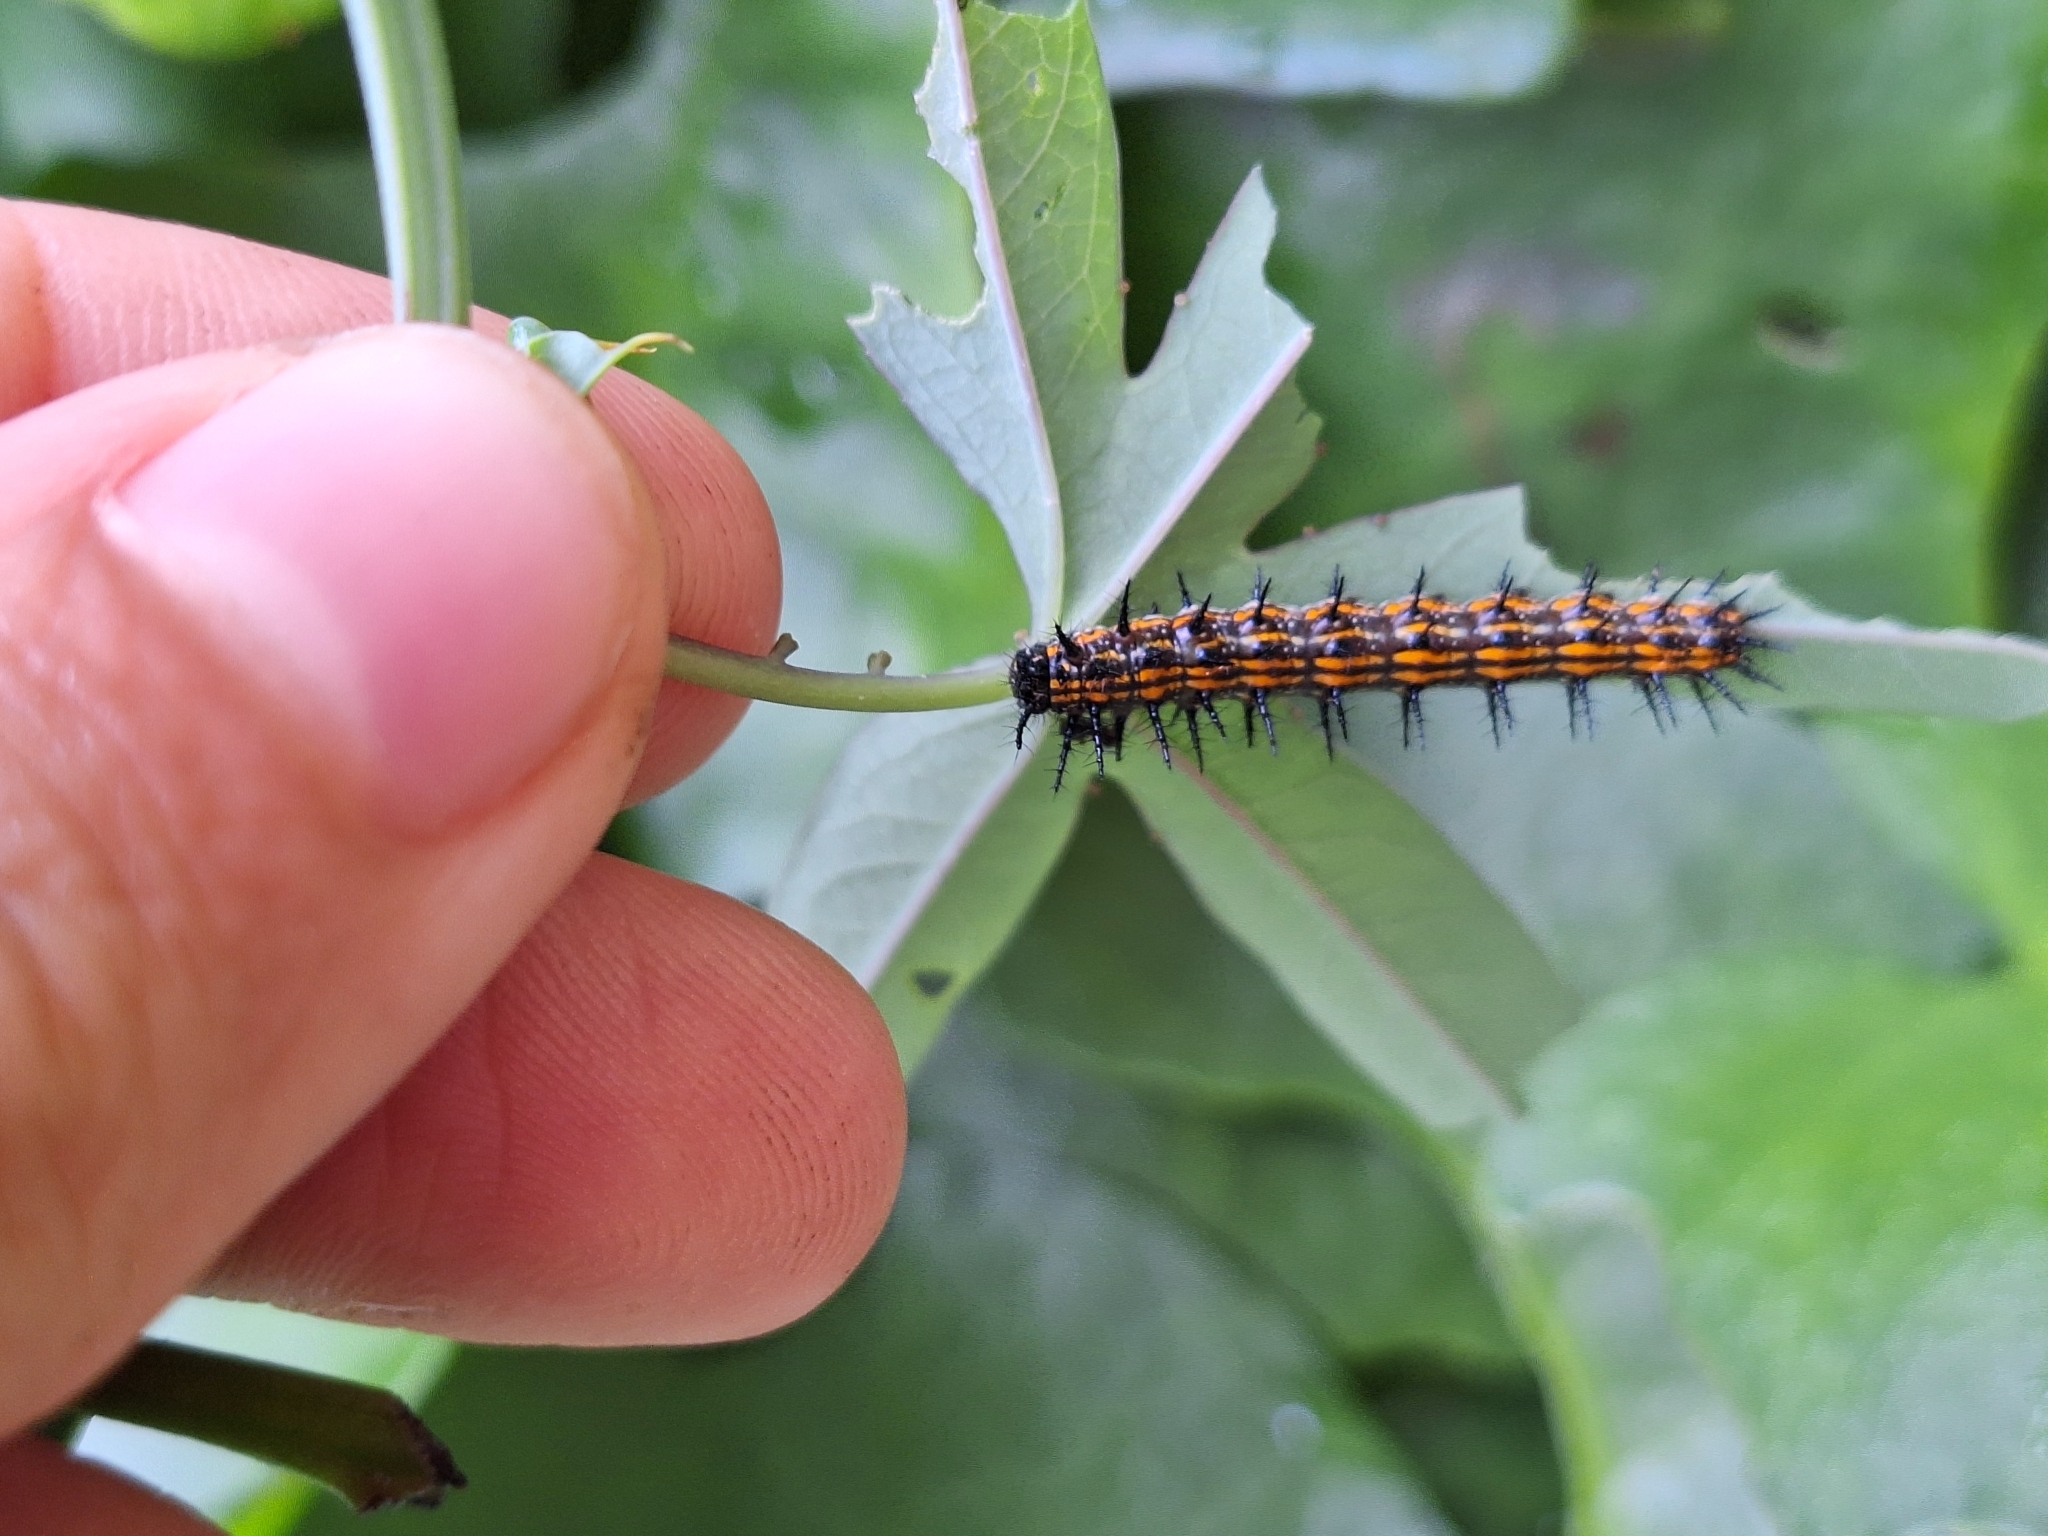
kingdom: Animalia
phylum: Arthropoda
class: Insecta
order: Lepidoptera
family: Nymphalidae
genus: Dione
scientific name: Dione vanillae
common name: Gulf fritillary
